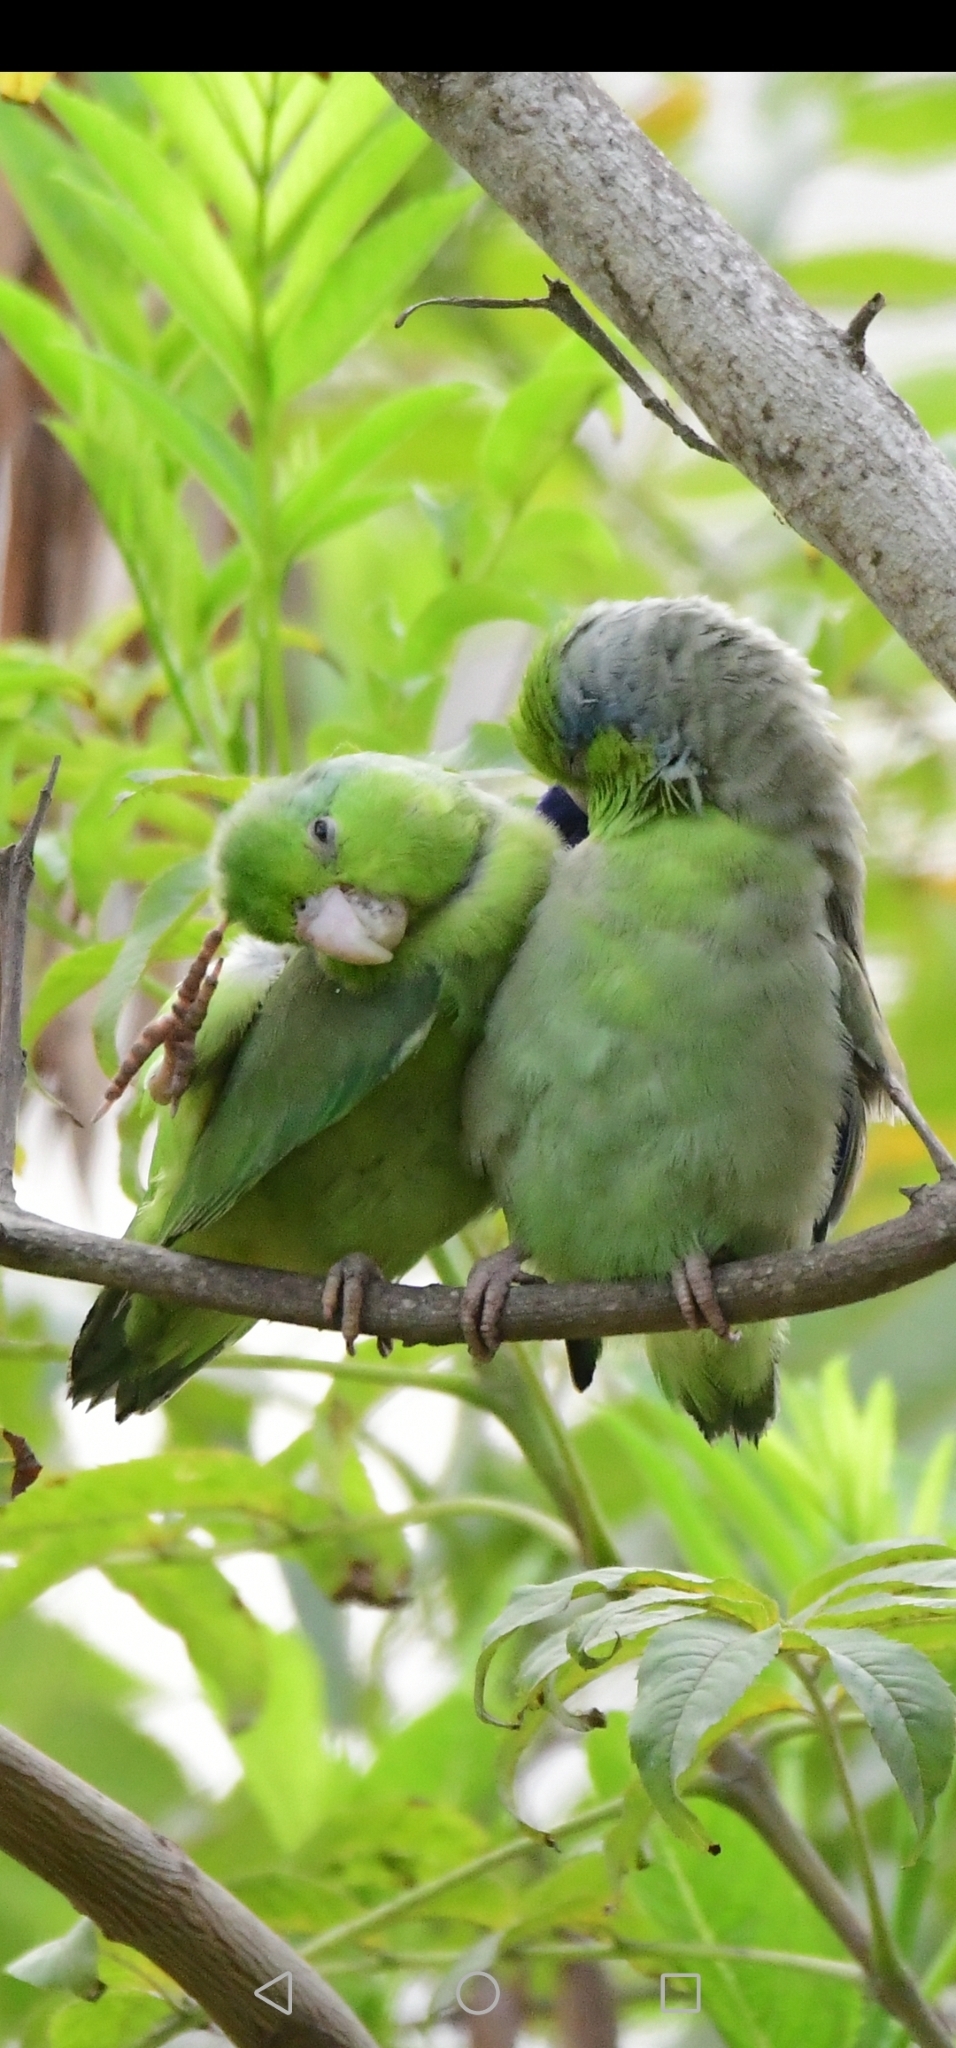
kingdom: Animalia
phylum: Chordata
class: Aves
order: Psittaciformes
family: Psittacidae
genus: Forpus
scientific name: Forpus coelestis
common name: Pacific parrotlet
